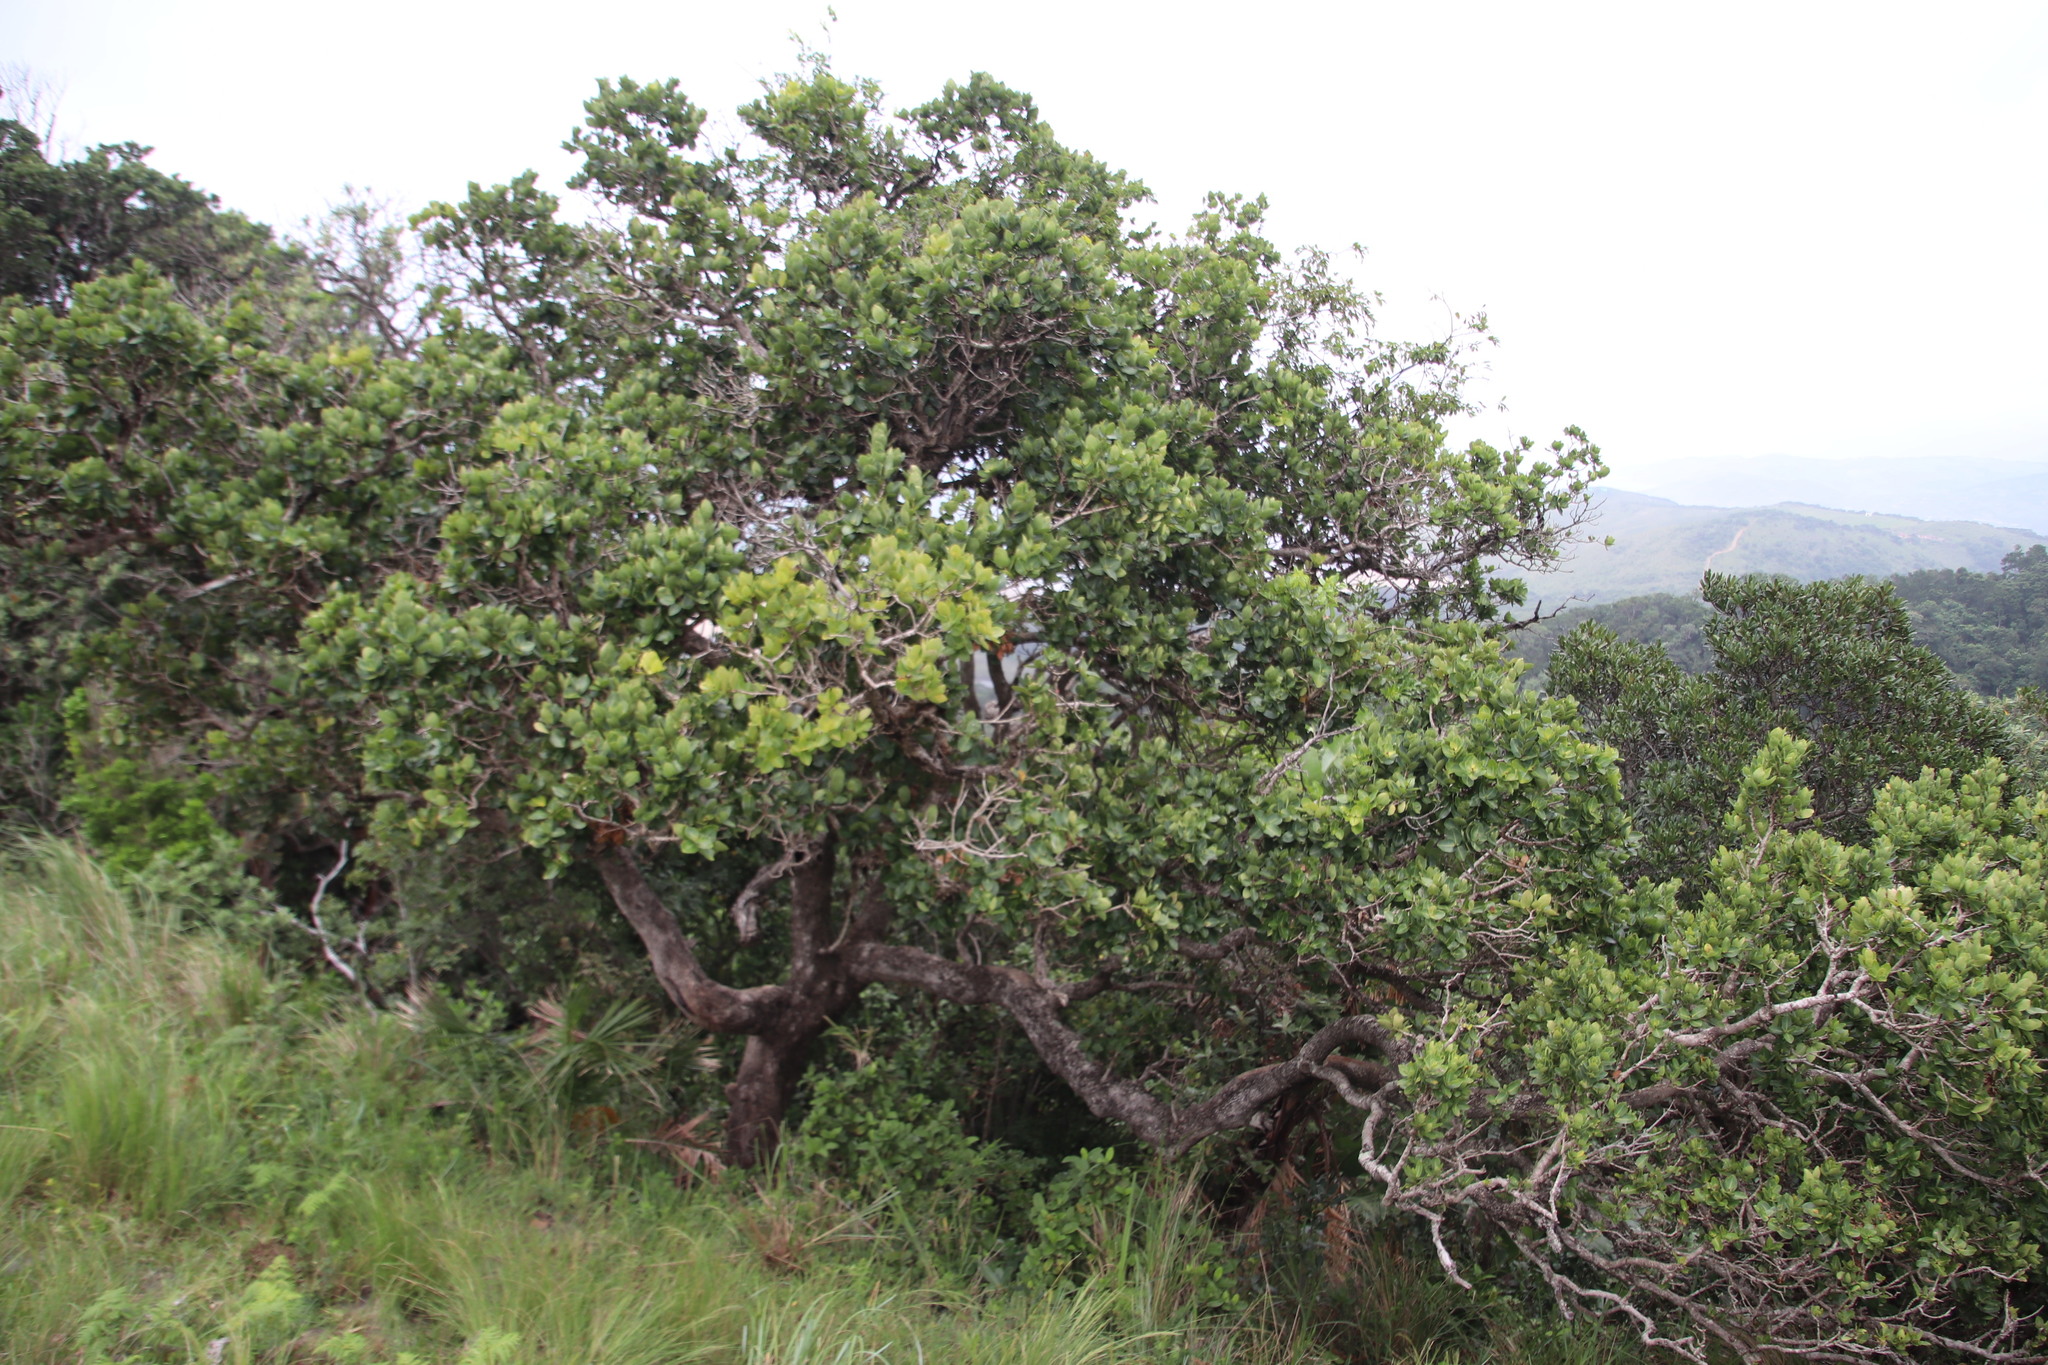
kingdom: Plantae
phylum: Tracheophyta
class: Magnoliopsida
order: Myrtales
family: Myrtaceae
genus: Syzygium
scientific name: Syzygium cordatum
